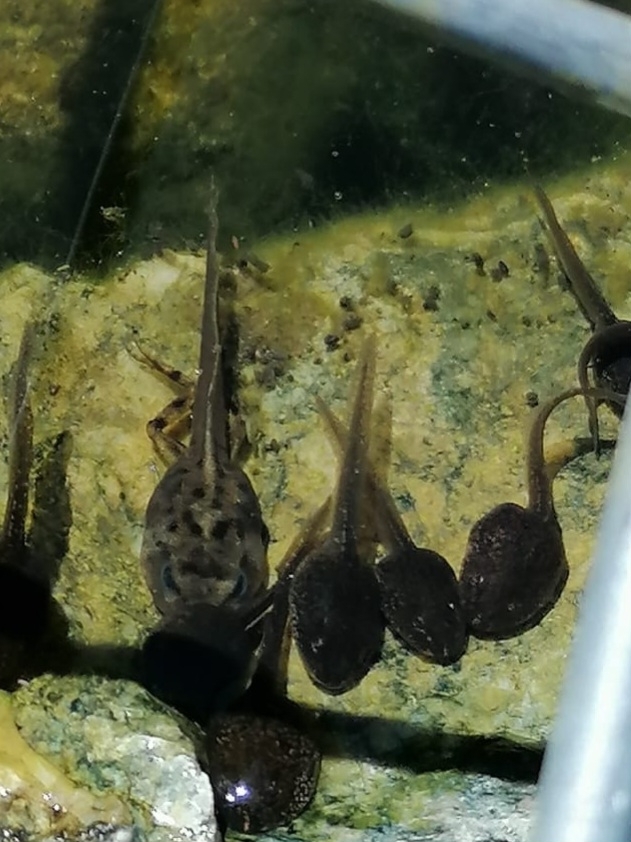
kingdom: Animalia
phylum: Chordata
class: Amphibia
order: Anura
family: Ranidae
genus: Rana
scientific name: Rana temporaria
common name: Common frog
